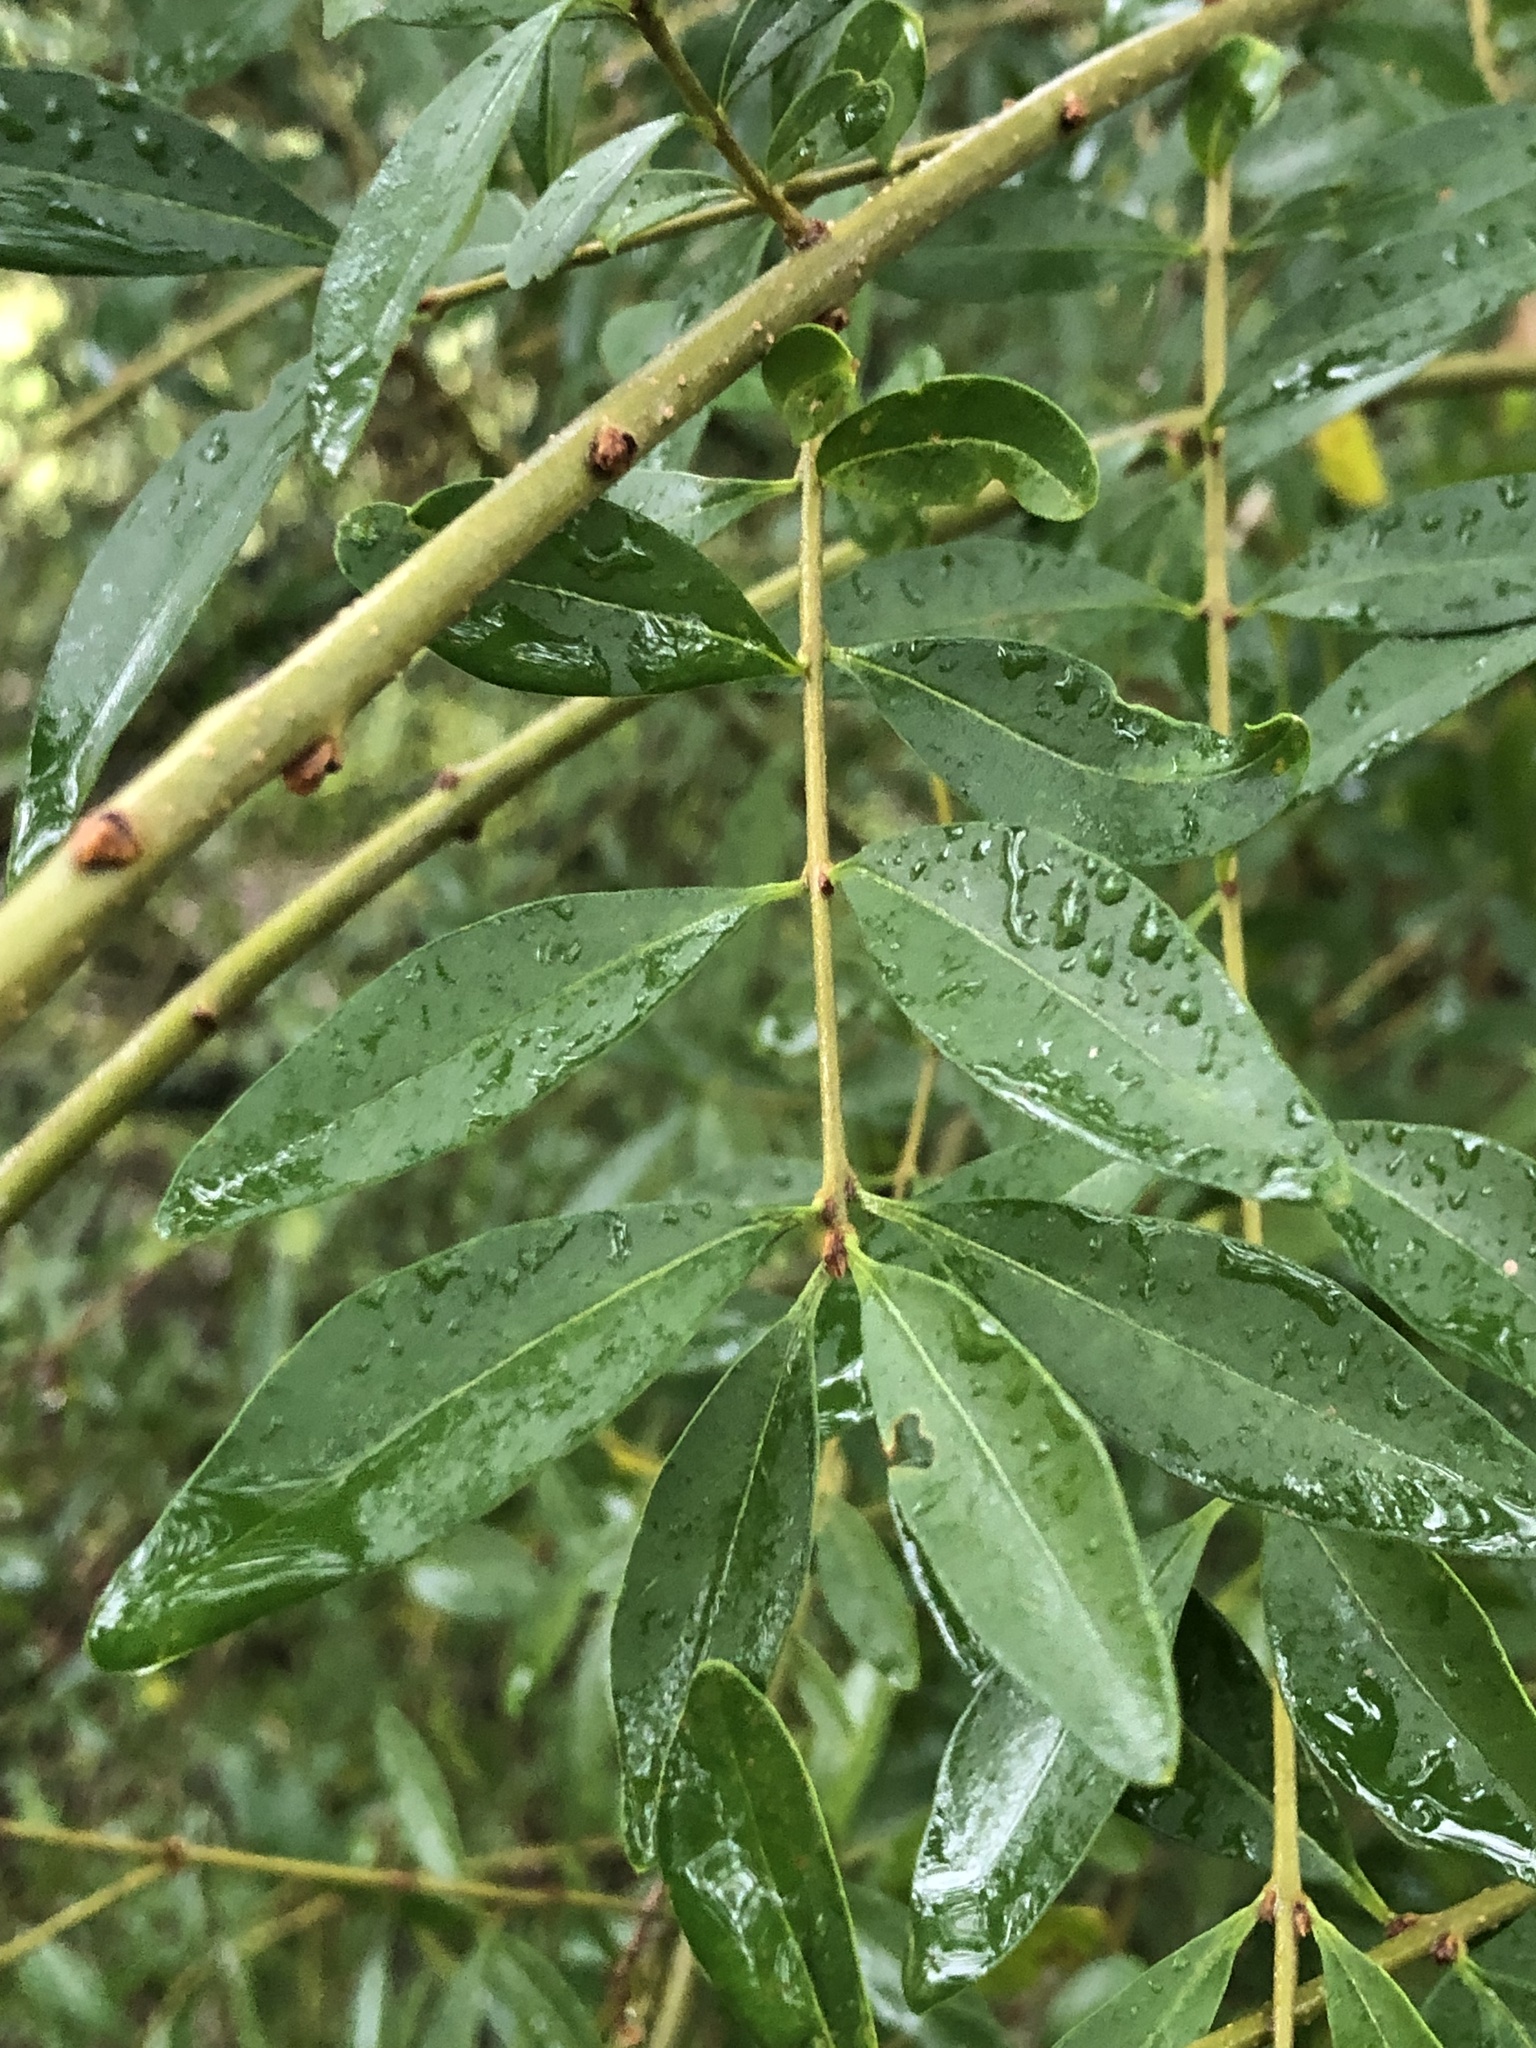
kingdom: Plantae
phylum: Tracheophyta
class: Magnoliopsida
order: Lamiales
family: Oleaceae
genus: Ligustrum
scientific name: Ligustrum quihoui
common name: Waxyleaf privet
